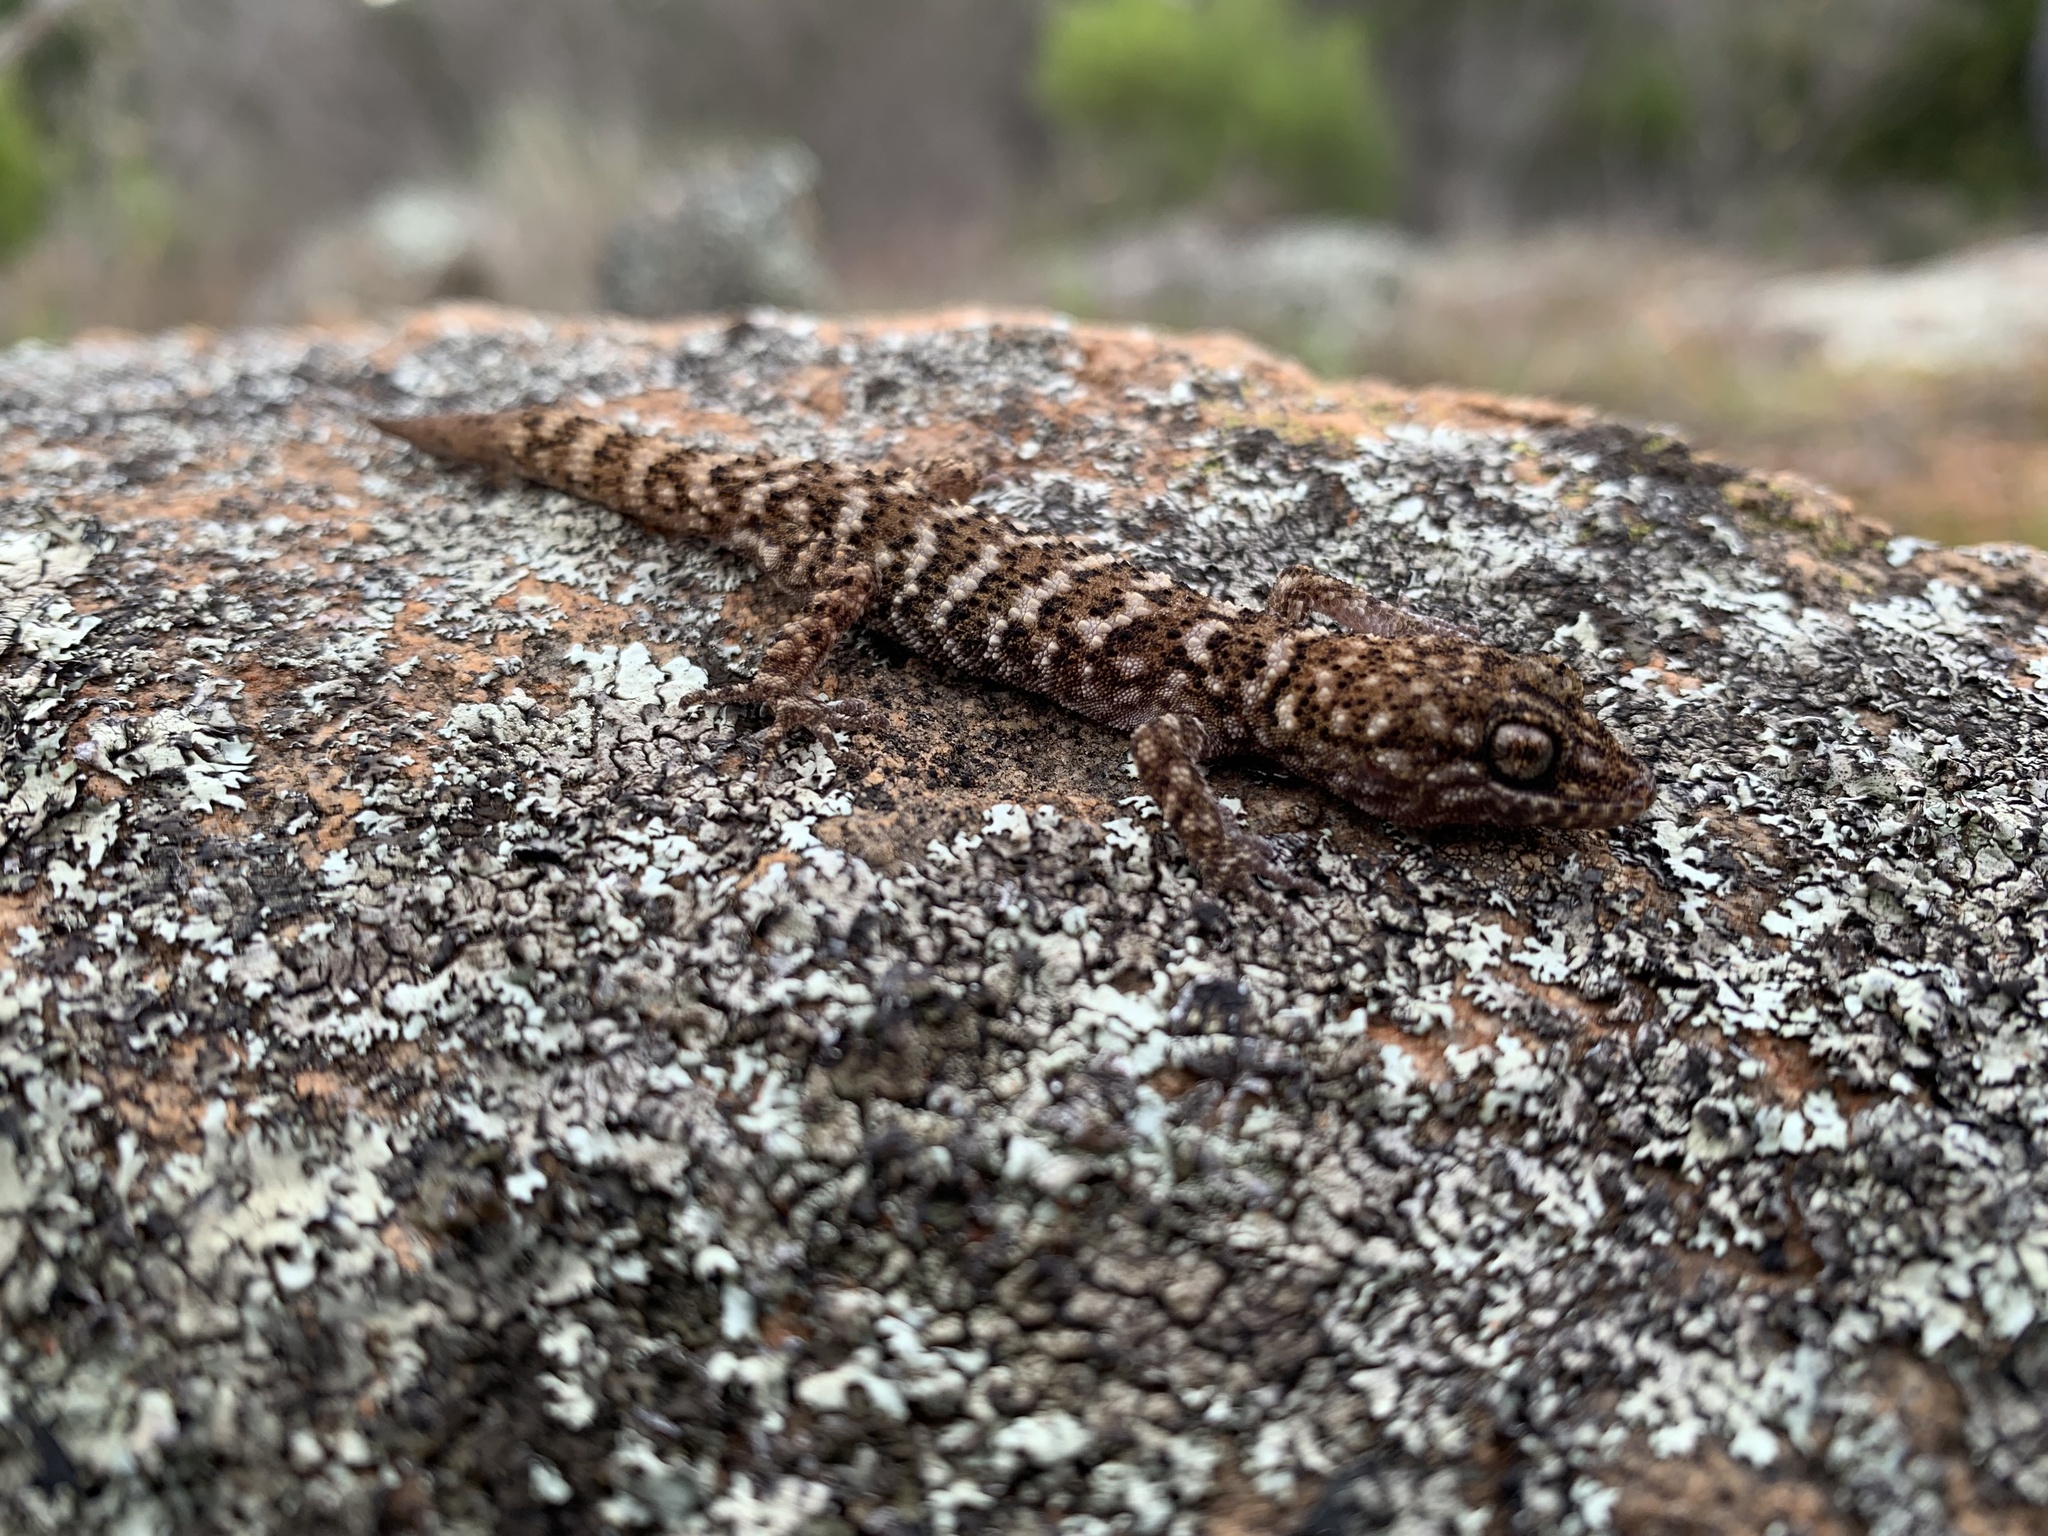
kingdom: Animalia
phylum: Chordata
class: Squamata
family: Gekkonidae
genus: Heteronotia
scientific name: Heteronotia binoei
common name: Bynoe's gecko
